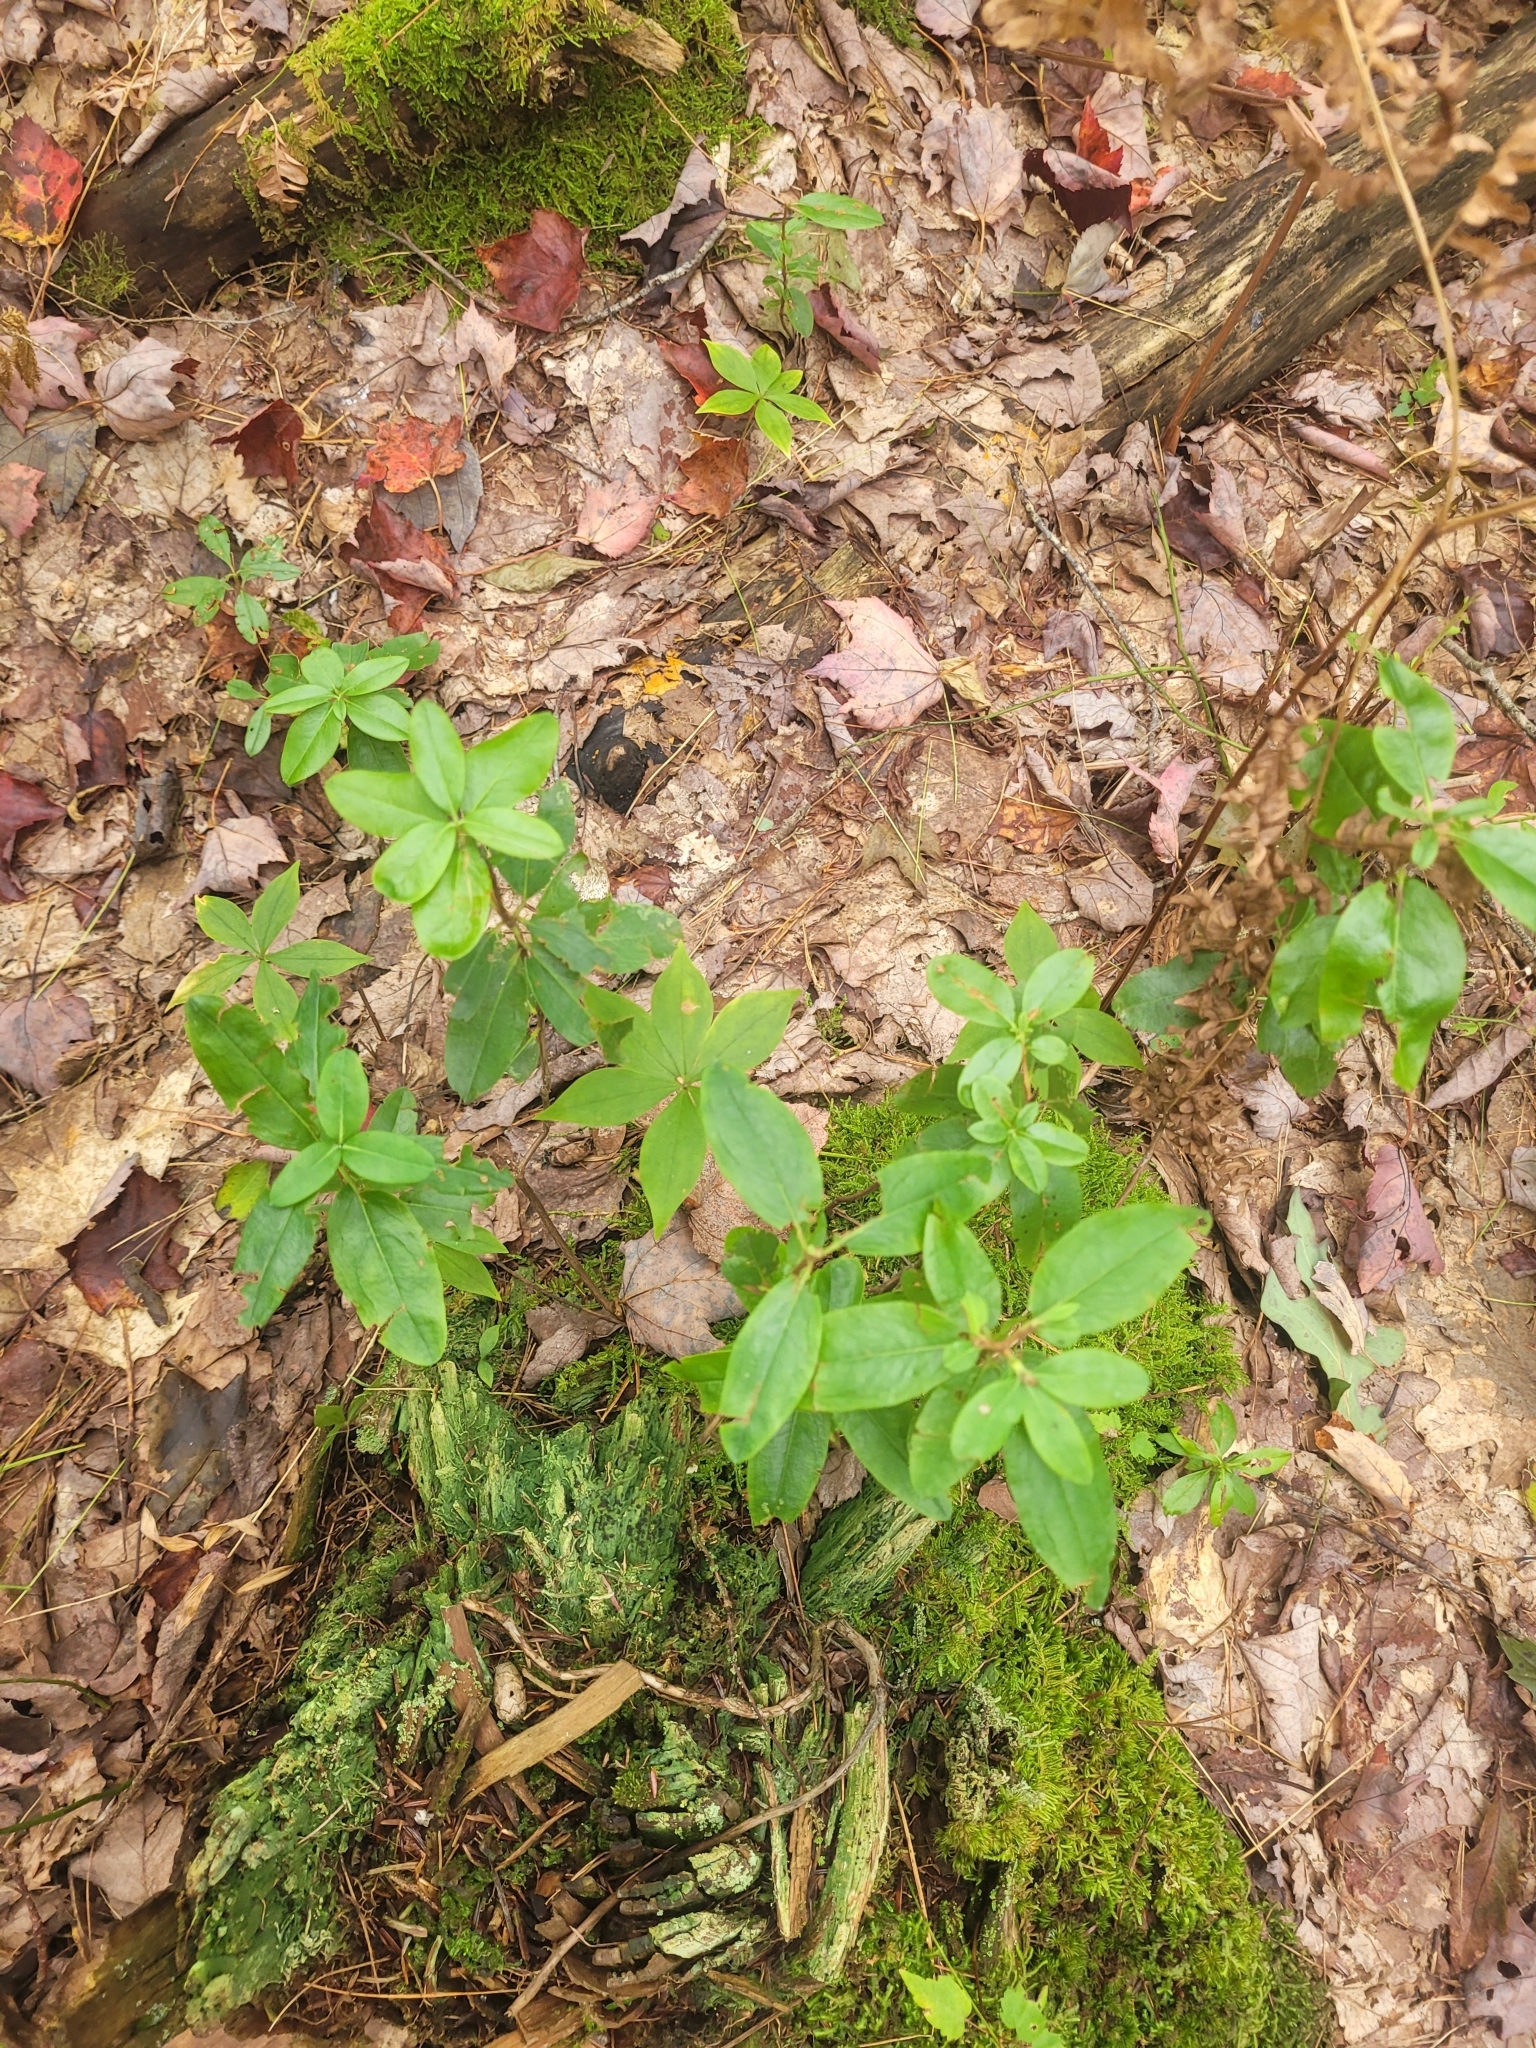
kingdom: Plantae
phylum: Tracheophyta
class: Magnoliopsida
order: Ericales
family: Ericaceae
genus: Kalmia
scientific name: Kalmia angustifolia
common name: Sheep-laurel
